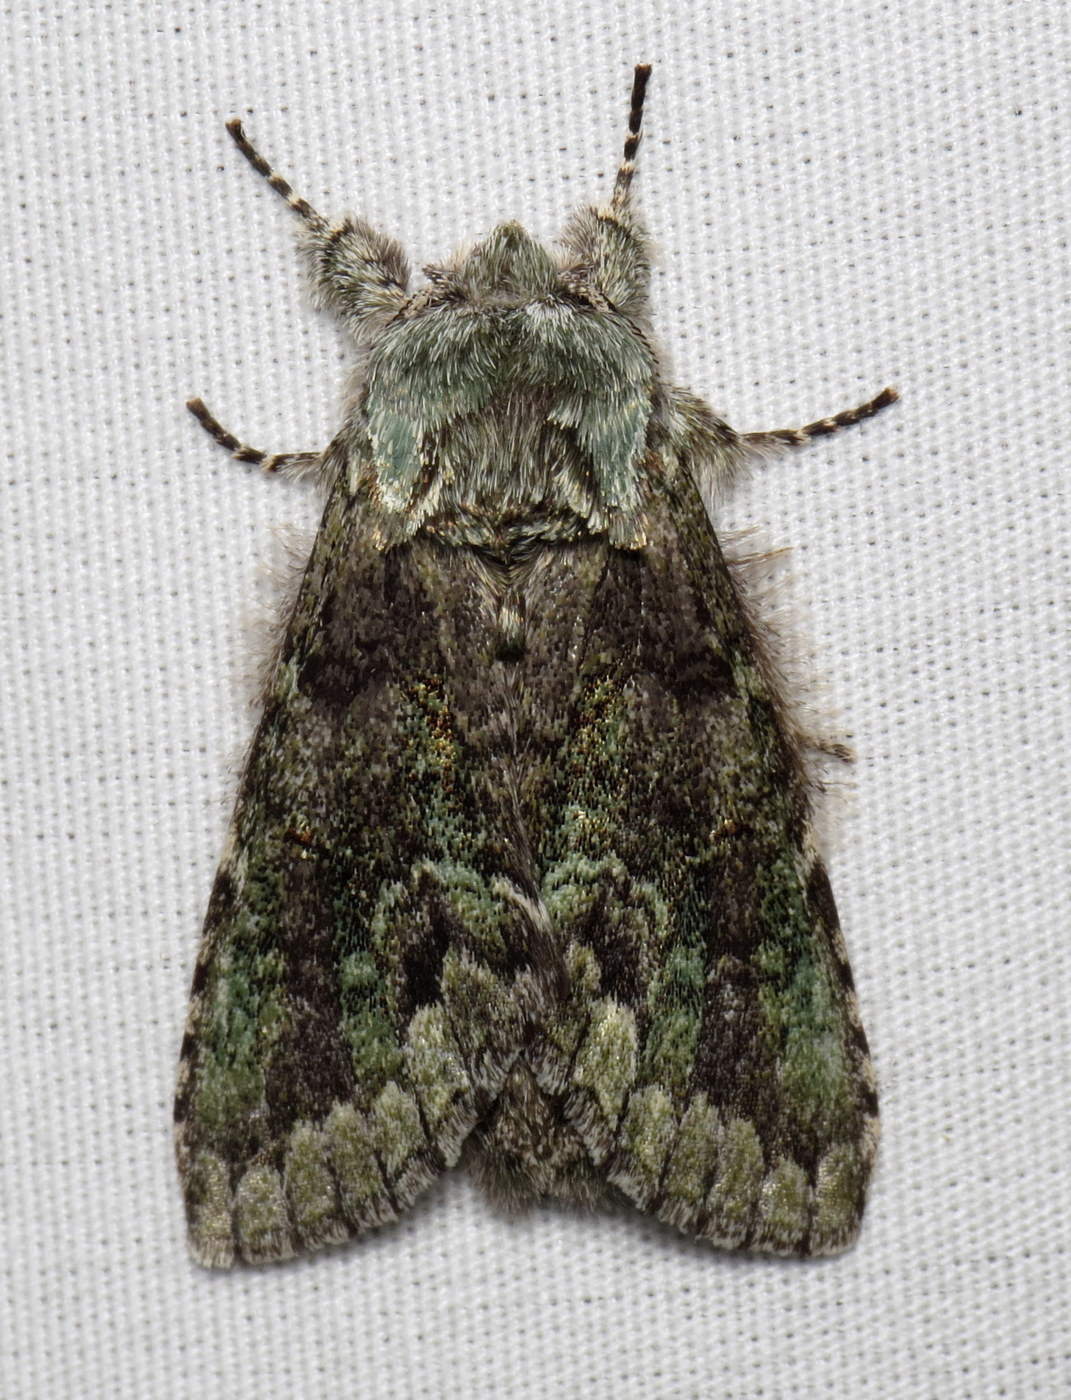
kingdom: Animalia
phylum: Arthropoda
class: Insecta
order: Lepidoptera
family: Notodontidae
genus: Macrurocampa
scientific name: Macrurocampa marthesia
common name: Mottled prominent
